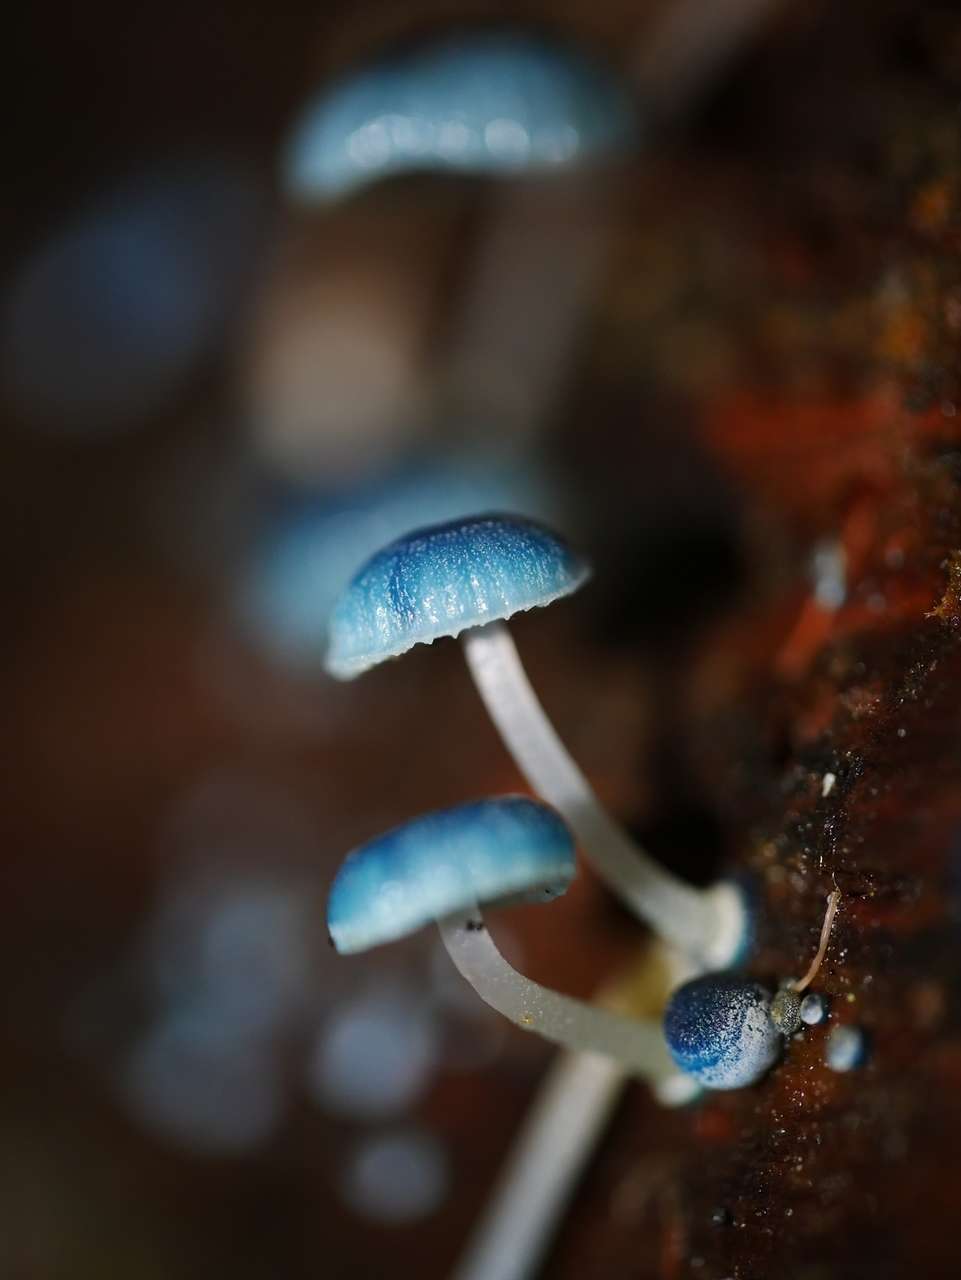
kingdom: Fungi
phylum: Basidiomycota
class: Agaricomycetes
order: Agaricales
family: Mycenaceae
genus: Mycena
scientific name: Mycena interrupta
